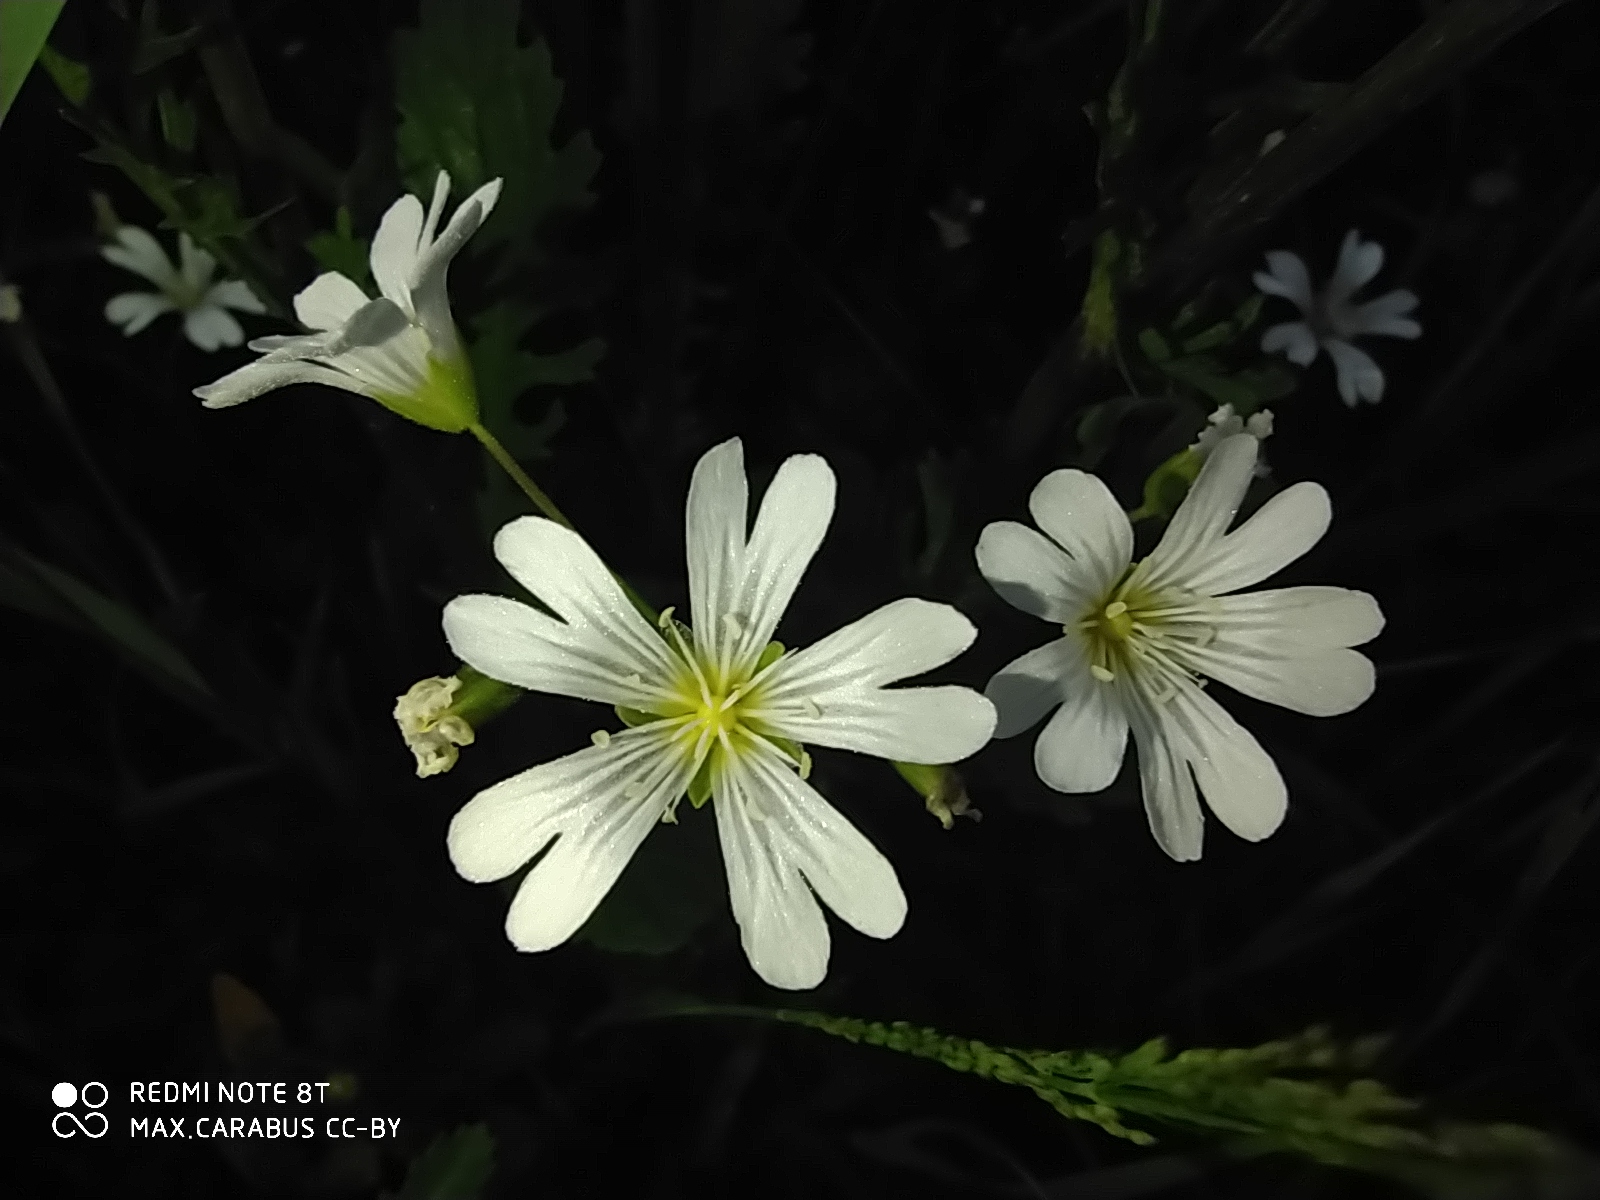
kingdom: Plantae
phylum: Tracheophyta
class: Magnoliopsida
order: Caryophyllales
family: Caryophyllaceae
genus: Cerastium
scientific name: Cerastium arvense
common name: Field mouse-ear
